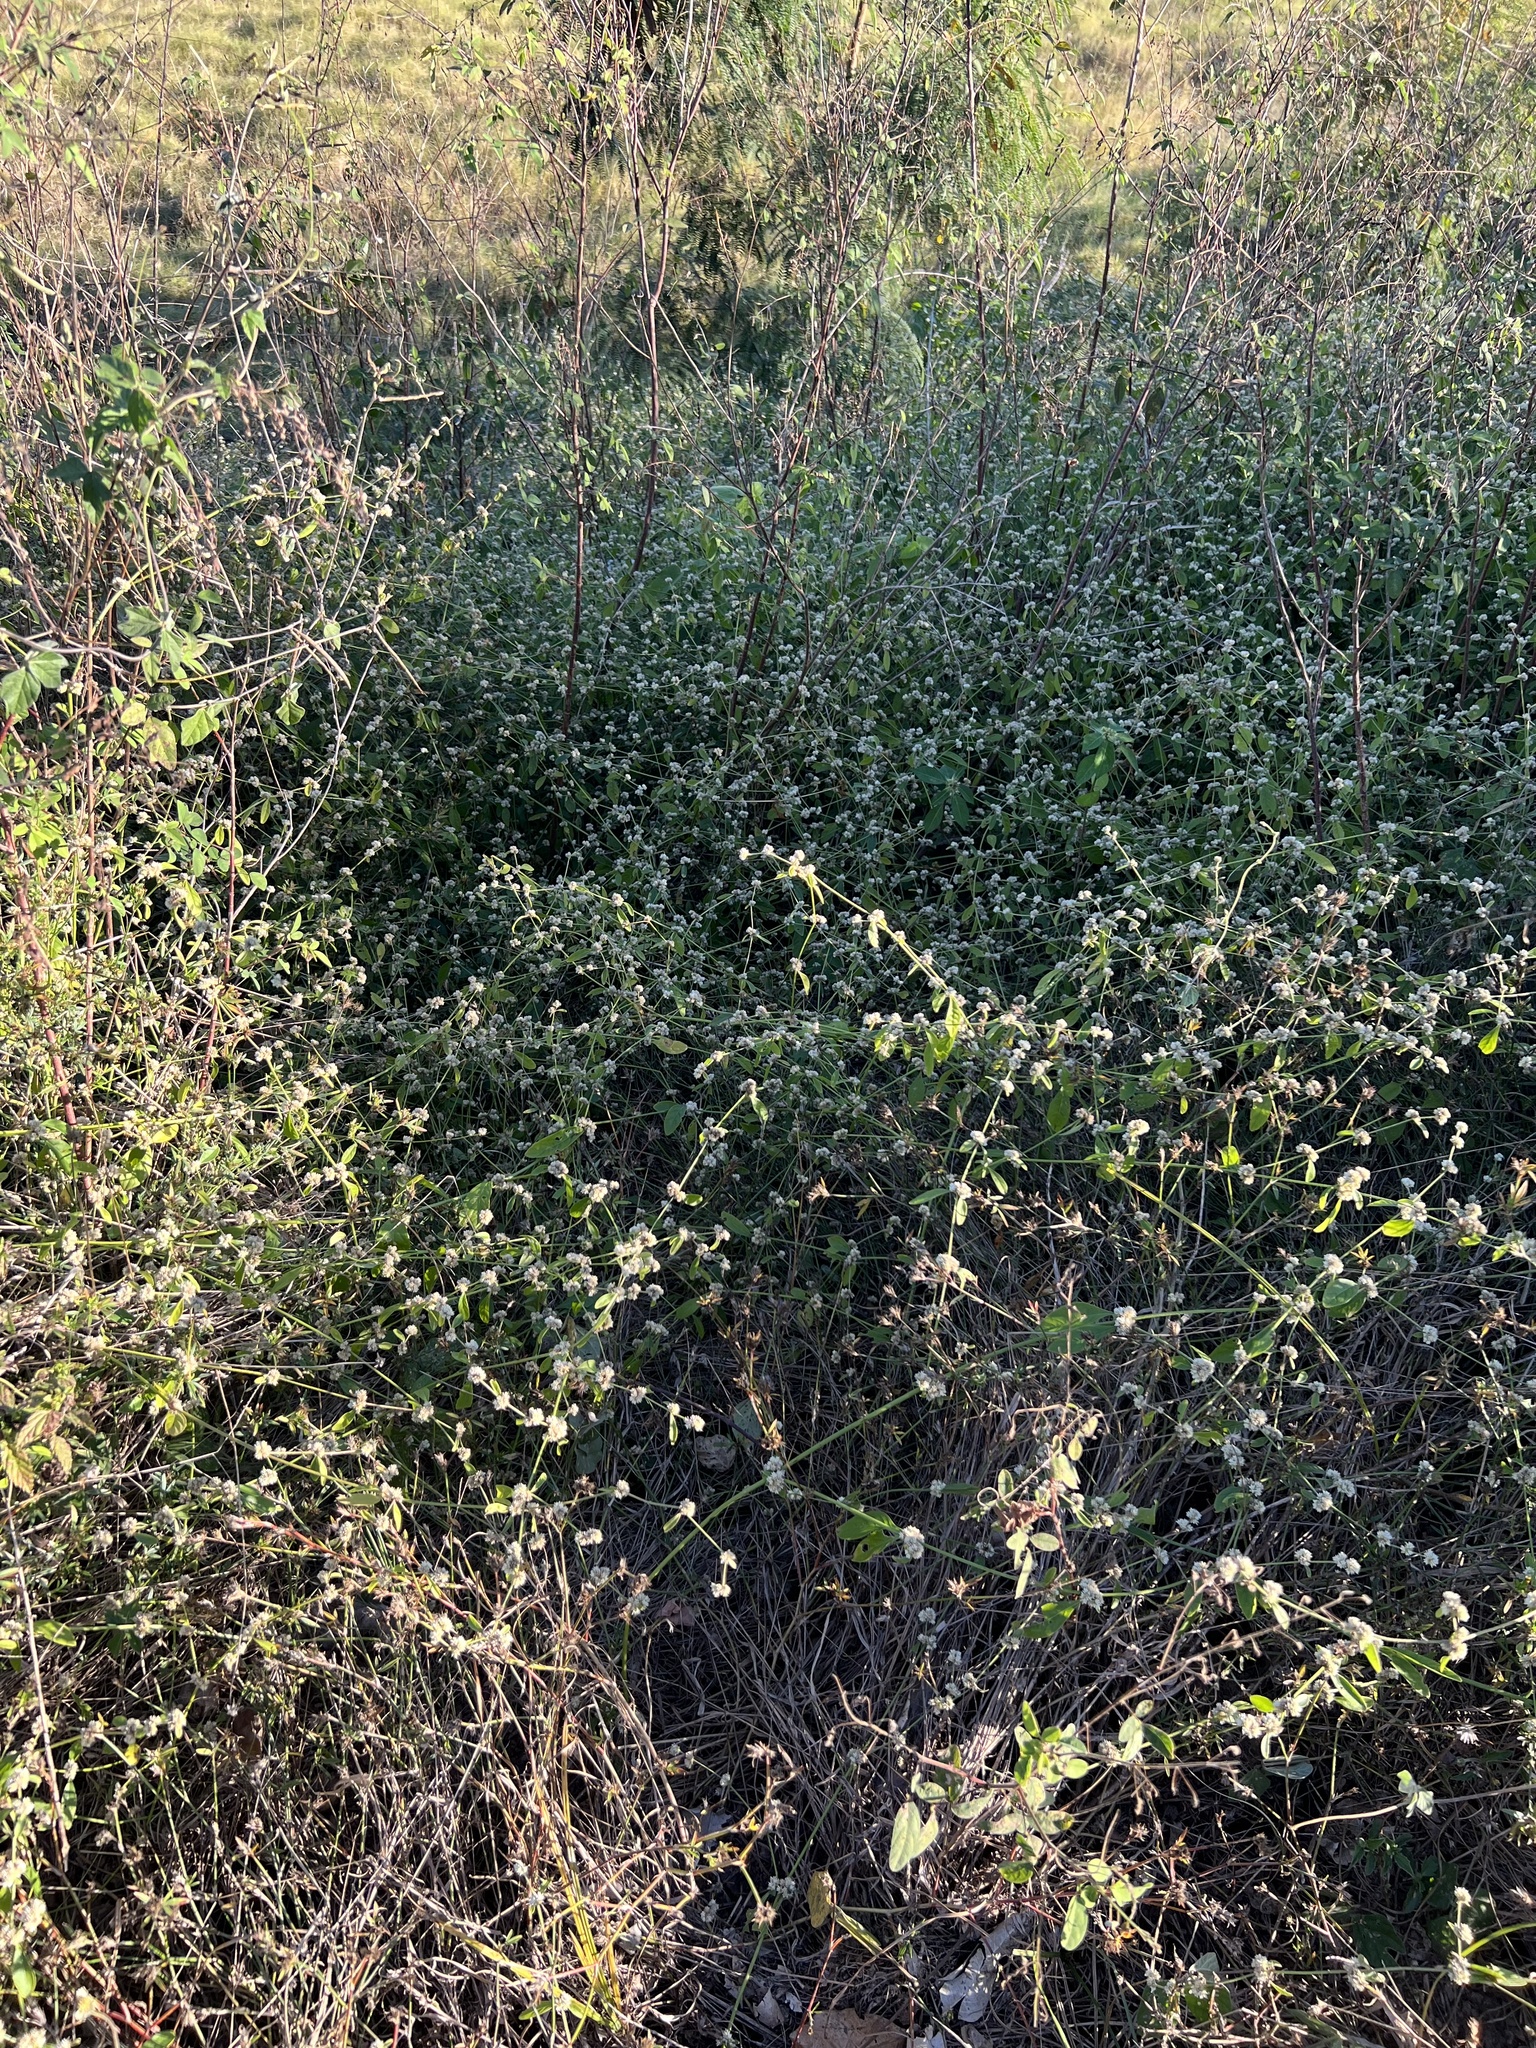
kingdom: Plantae
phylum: Tracheophyta
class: Magnoliopsida
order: Caryophyllales
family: Amaranthaceae
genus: Alternanthera
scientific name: Alternanthera ficoidea
